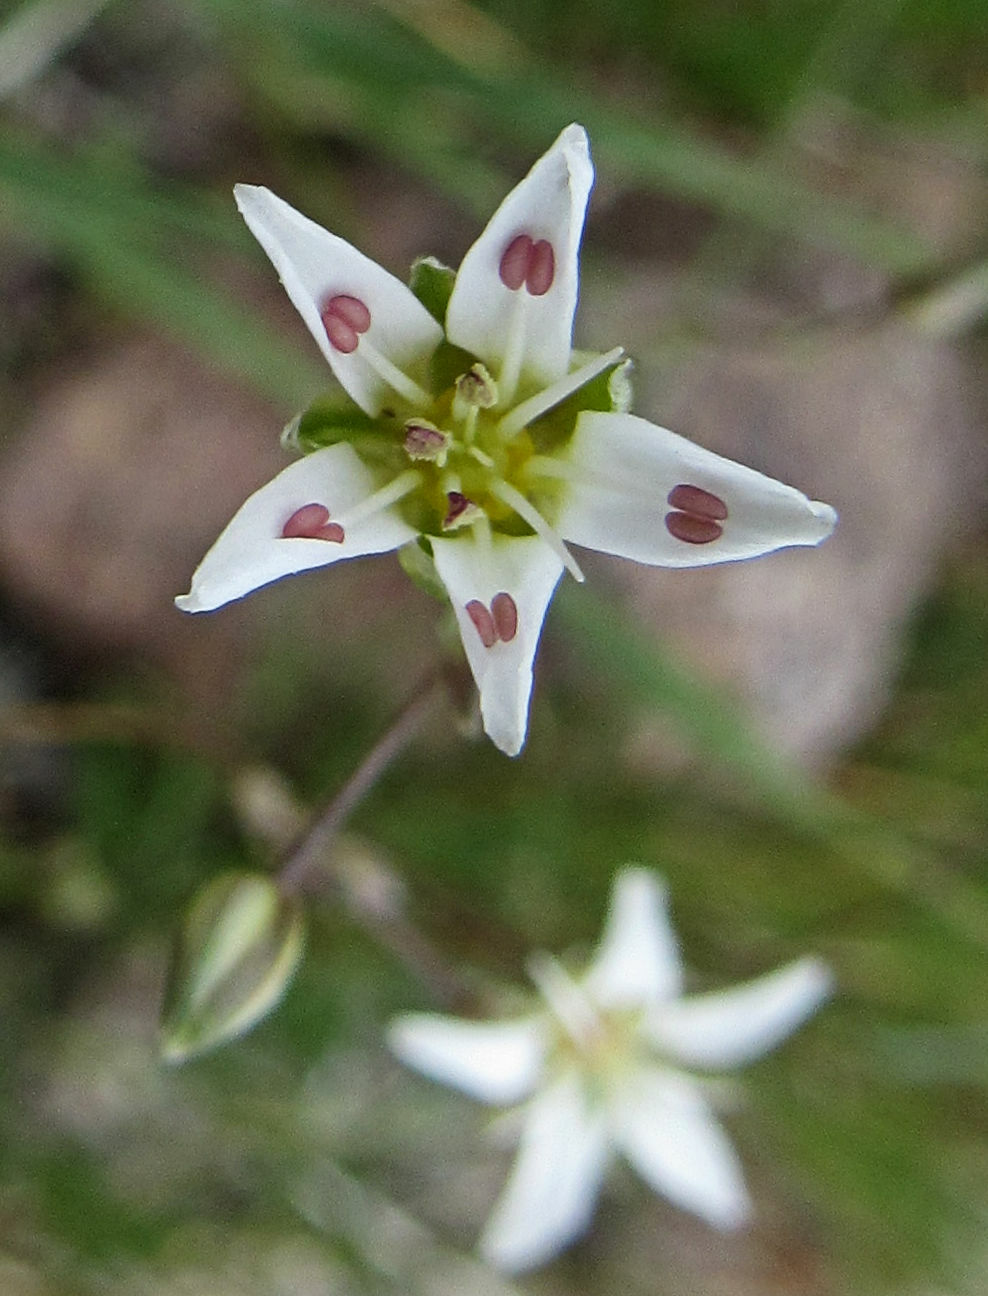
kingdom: Plantae
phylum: Tracheophyta
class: Magnoliopsida
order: Caryophyllales
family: Caryophyllaceae
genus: Eremogone
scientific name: Eremogone kingii
